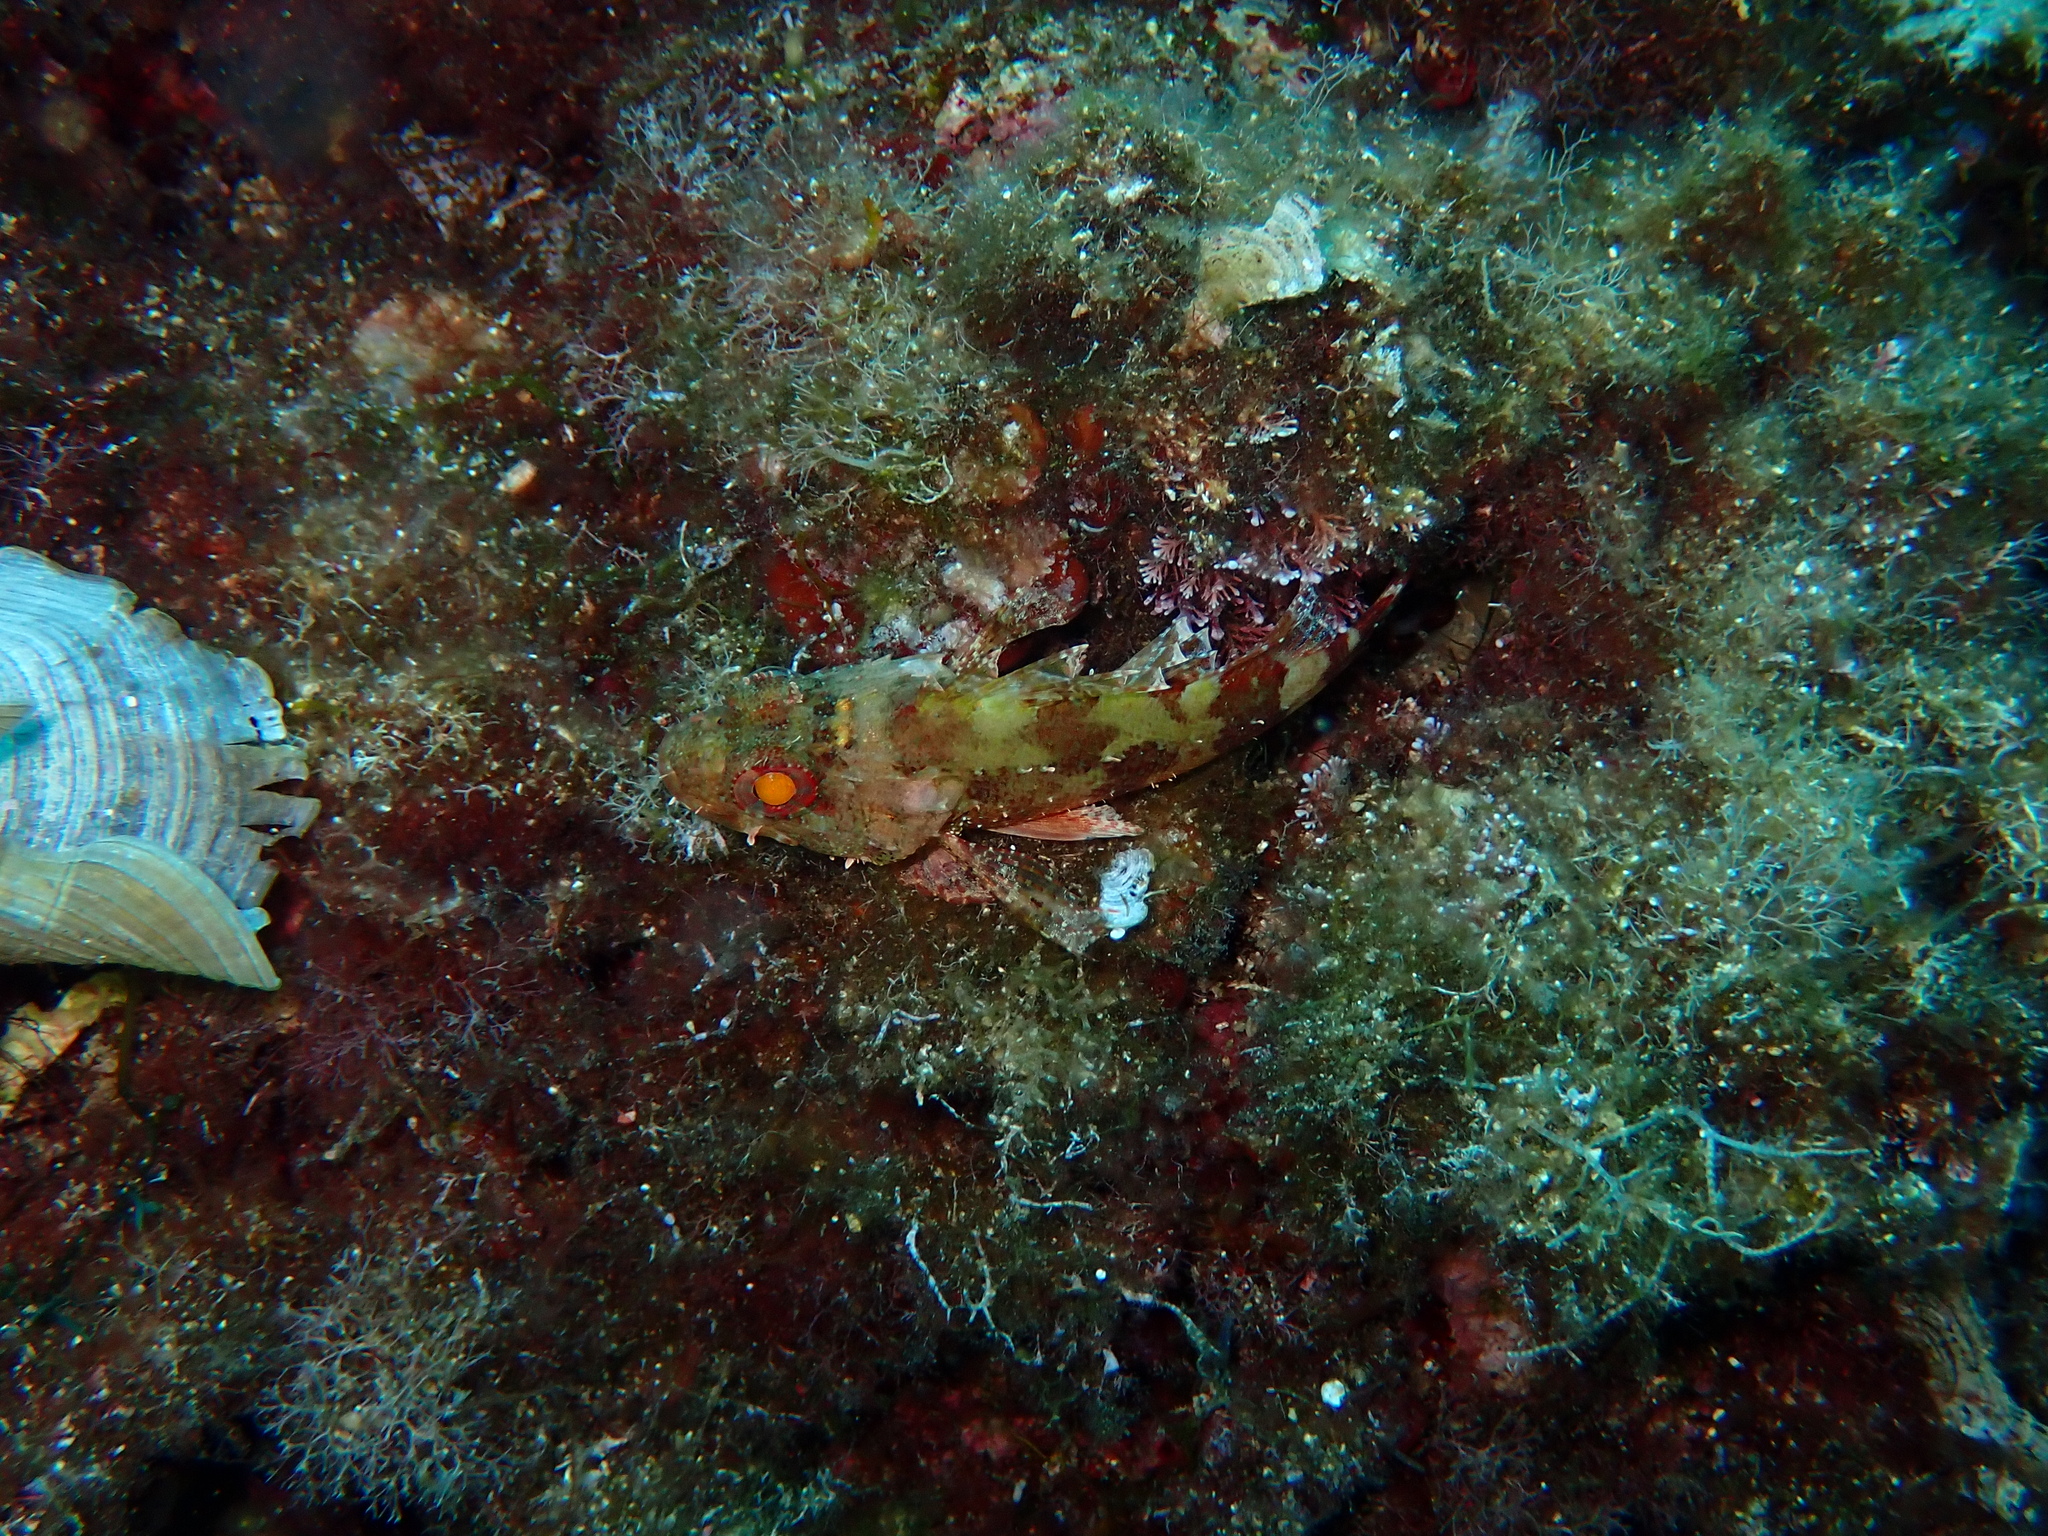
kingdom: Animalia
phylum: Chordata
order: Scorpaeniformes
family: Scorpaenidae
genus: Scorpaena
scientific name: Scorpaena maderensis
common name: Madeira rockfish
